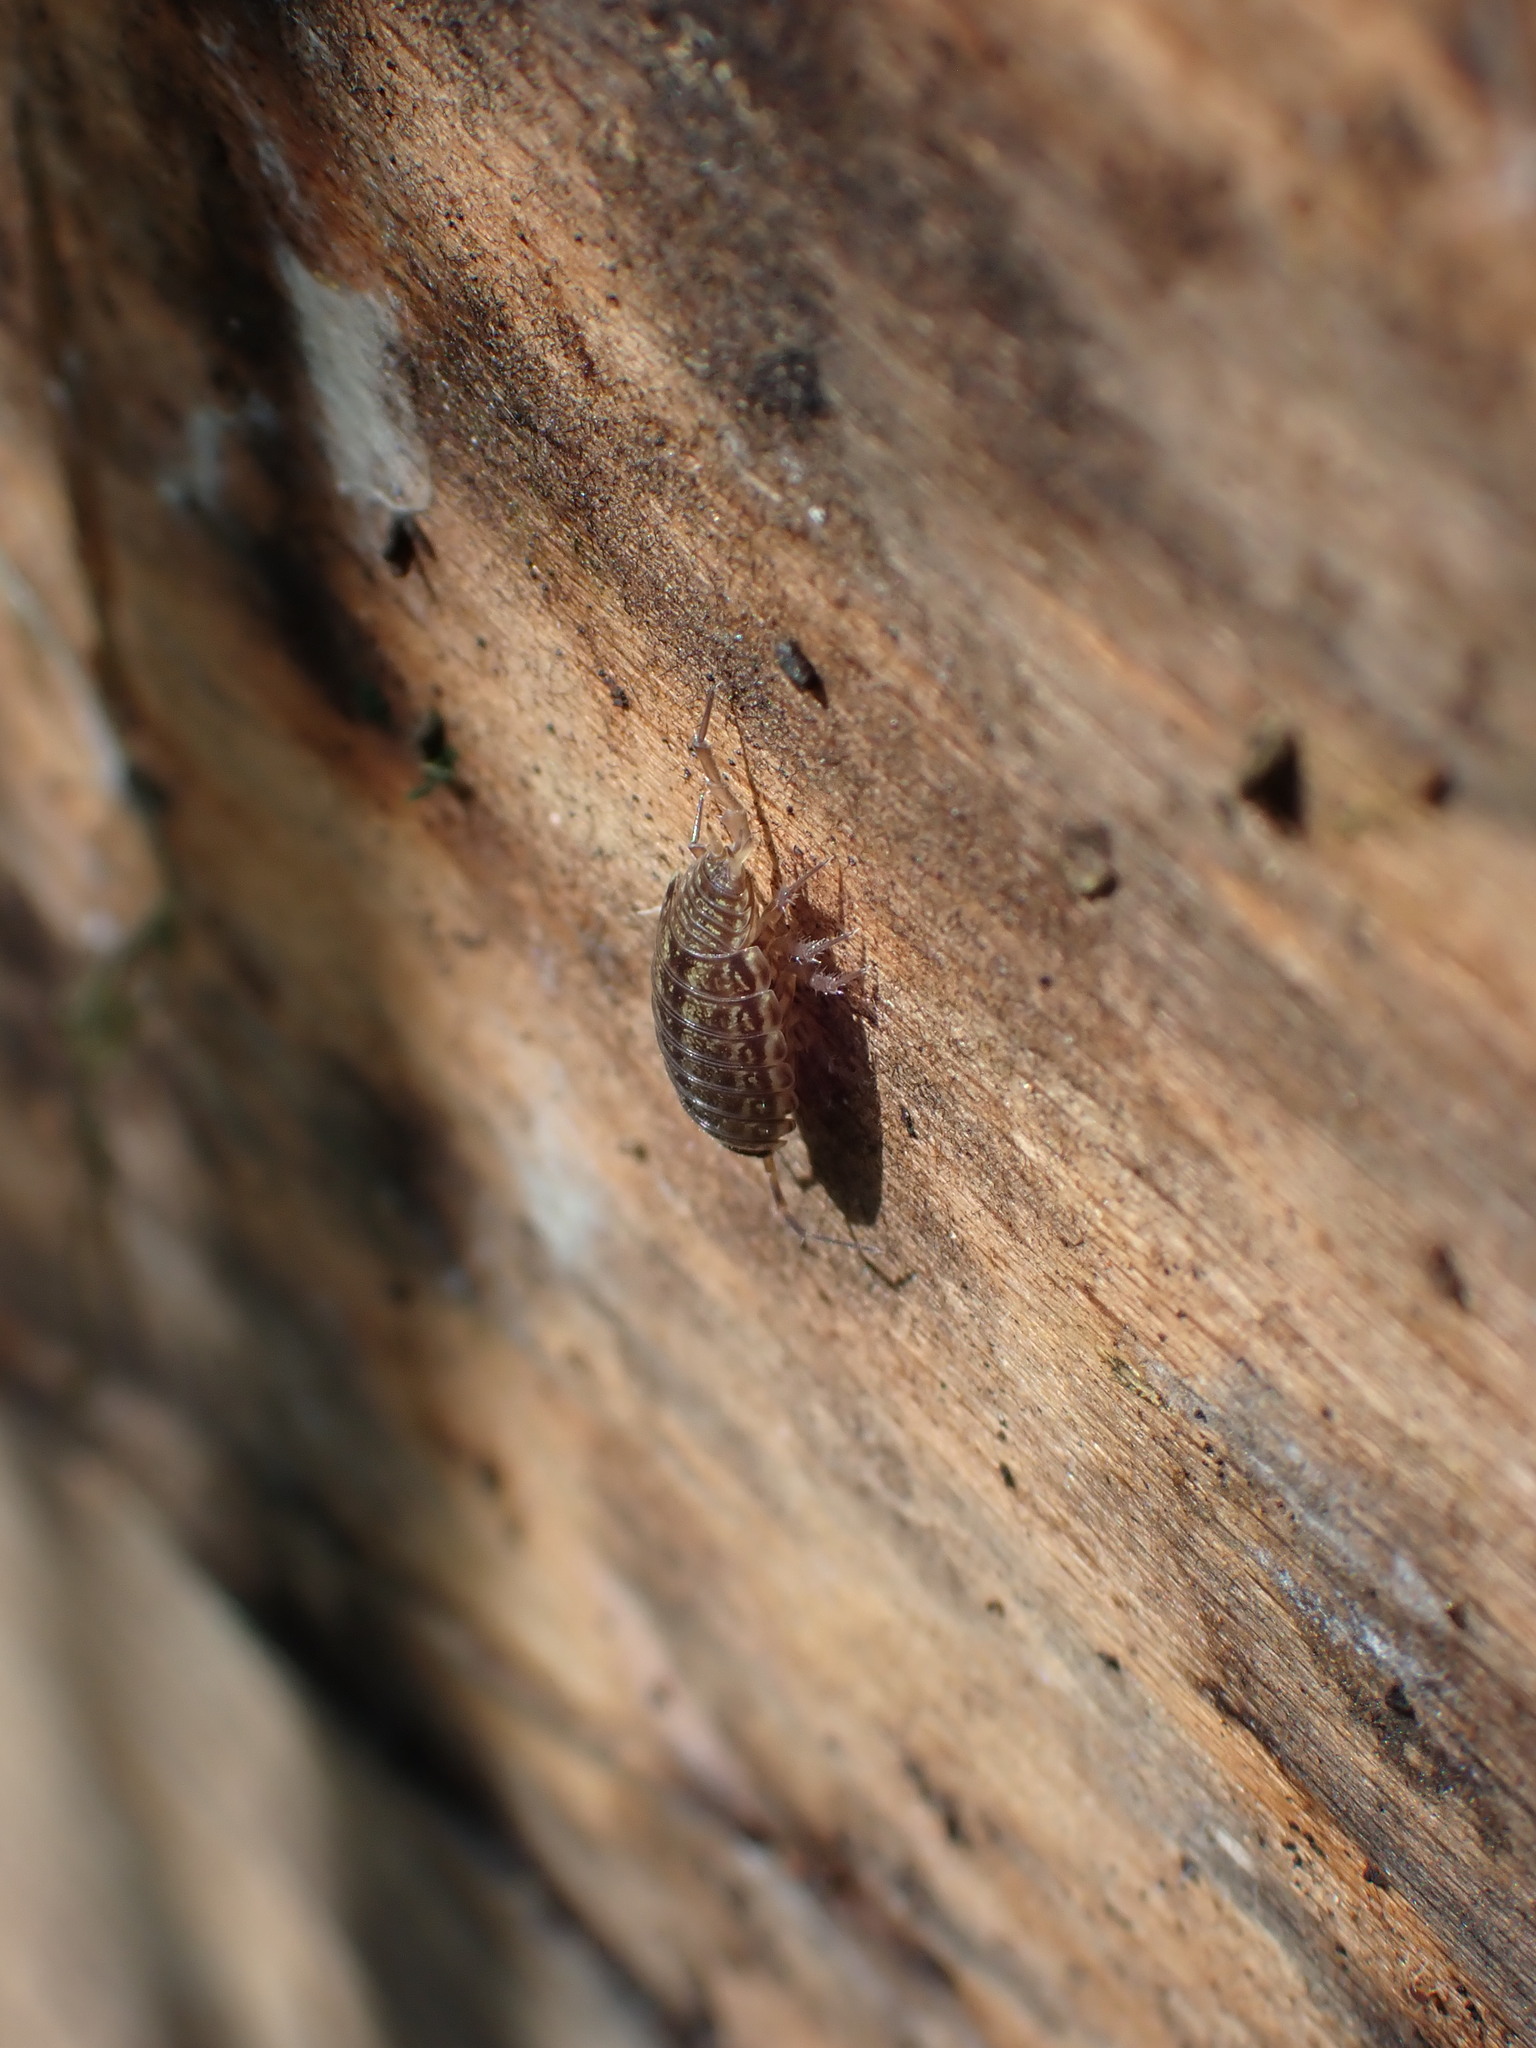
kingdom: Animalia
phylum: Arthropoda
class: Malacostraca
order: Isopoda
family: Philosciidae
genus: Philoscia
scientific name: Philoscia muscorum
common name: Common striped woodlouse
